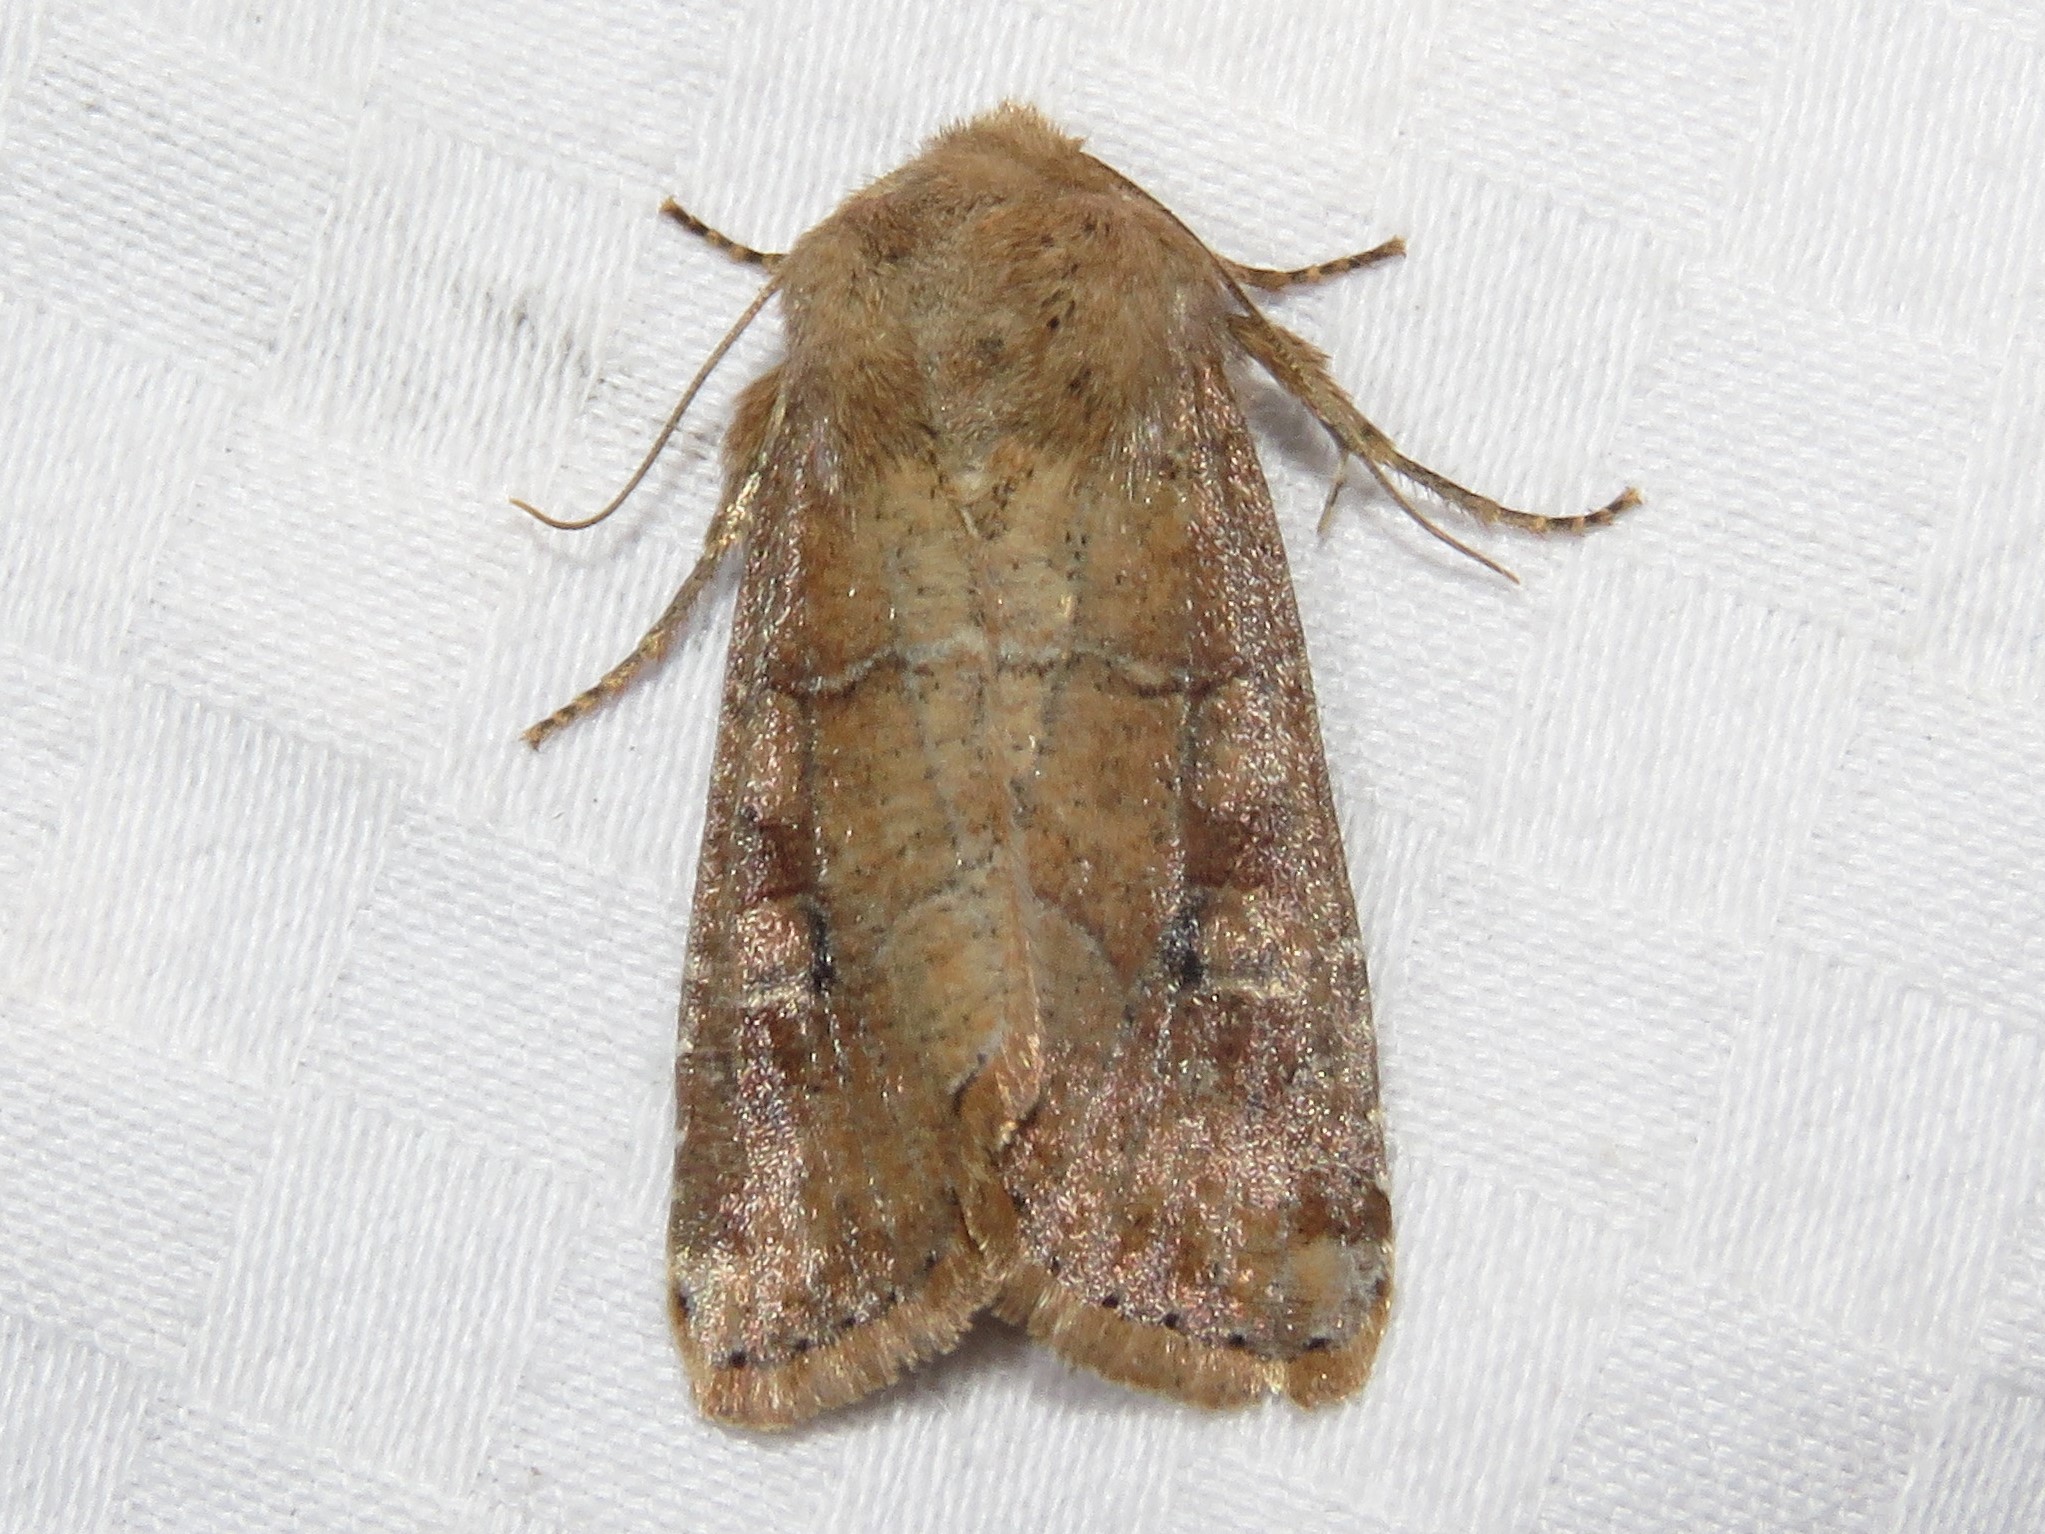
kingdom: Animalia
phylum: Arthropoda
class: Insecta
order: Lepidoptera
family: Noctuidae
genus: Crocigrapha
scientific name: Crocigrapha normani
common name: Norman's quaker
